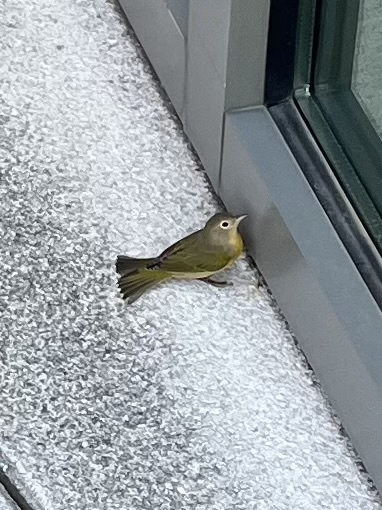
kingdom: Animalia
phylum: Chordata
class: Aves
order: Passeriformes
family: Parulidae
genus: Leiothlypis
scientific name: Leiothlypis ruficapilla
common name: Nashville warbler
